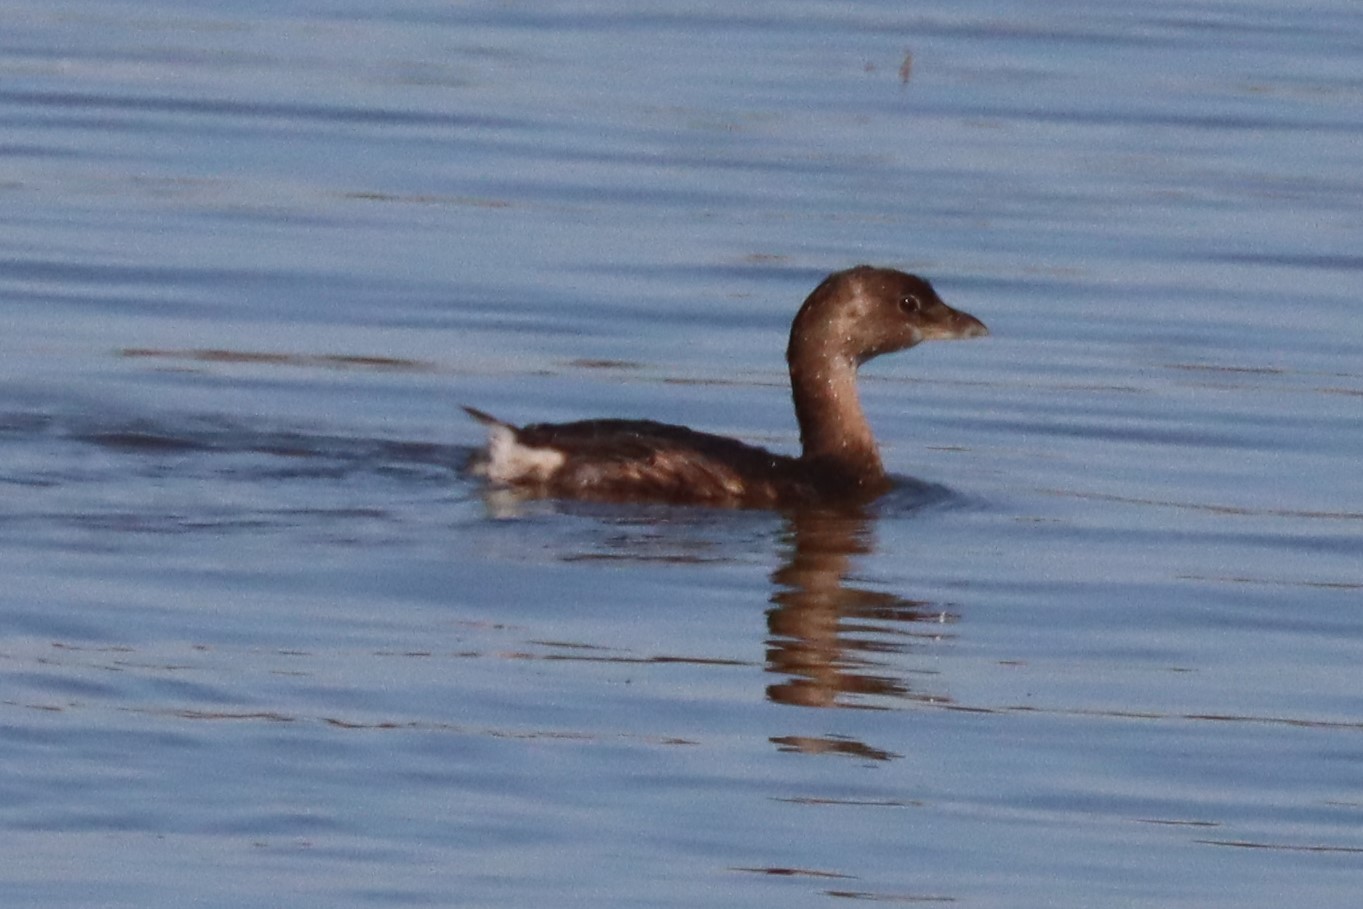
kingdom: Animalia
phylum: Chordata
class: Aves
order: Podicipediformes
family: Podicipedidae
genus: Podilymbus
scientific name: Podilymbus podiceps
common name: Pied-billed grebe
